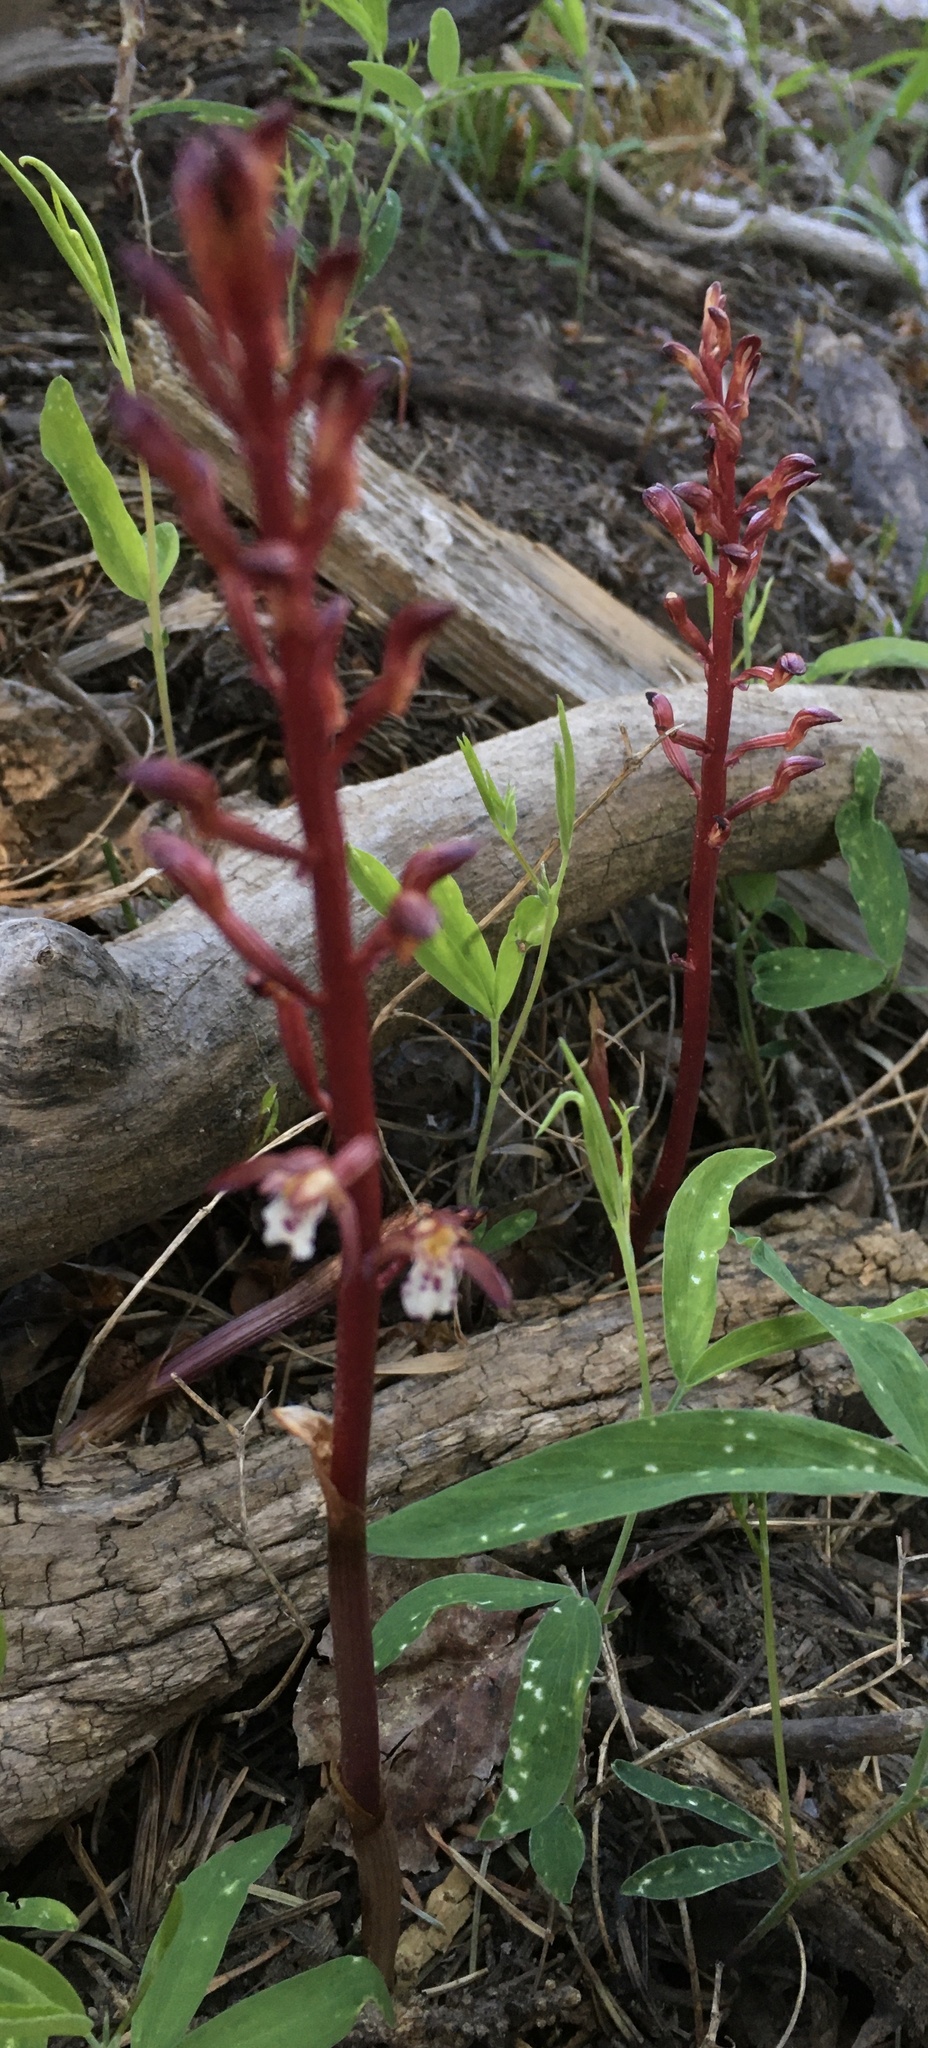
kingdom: Plantae
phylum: Tracheophyta
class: Liliopsida
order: Asparagales
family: Orchidaceae
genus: Corallorhiza
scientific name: Corallorhiza maculata
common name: Spotted coralroot
